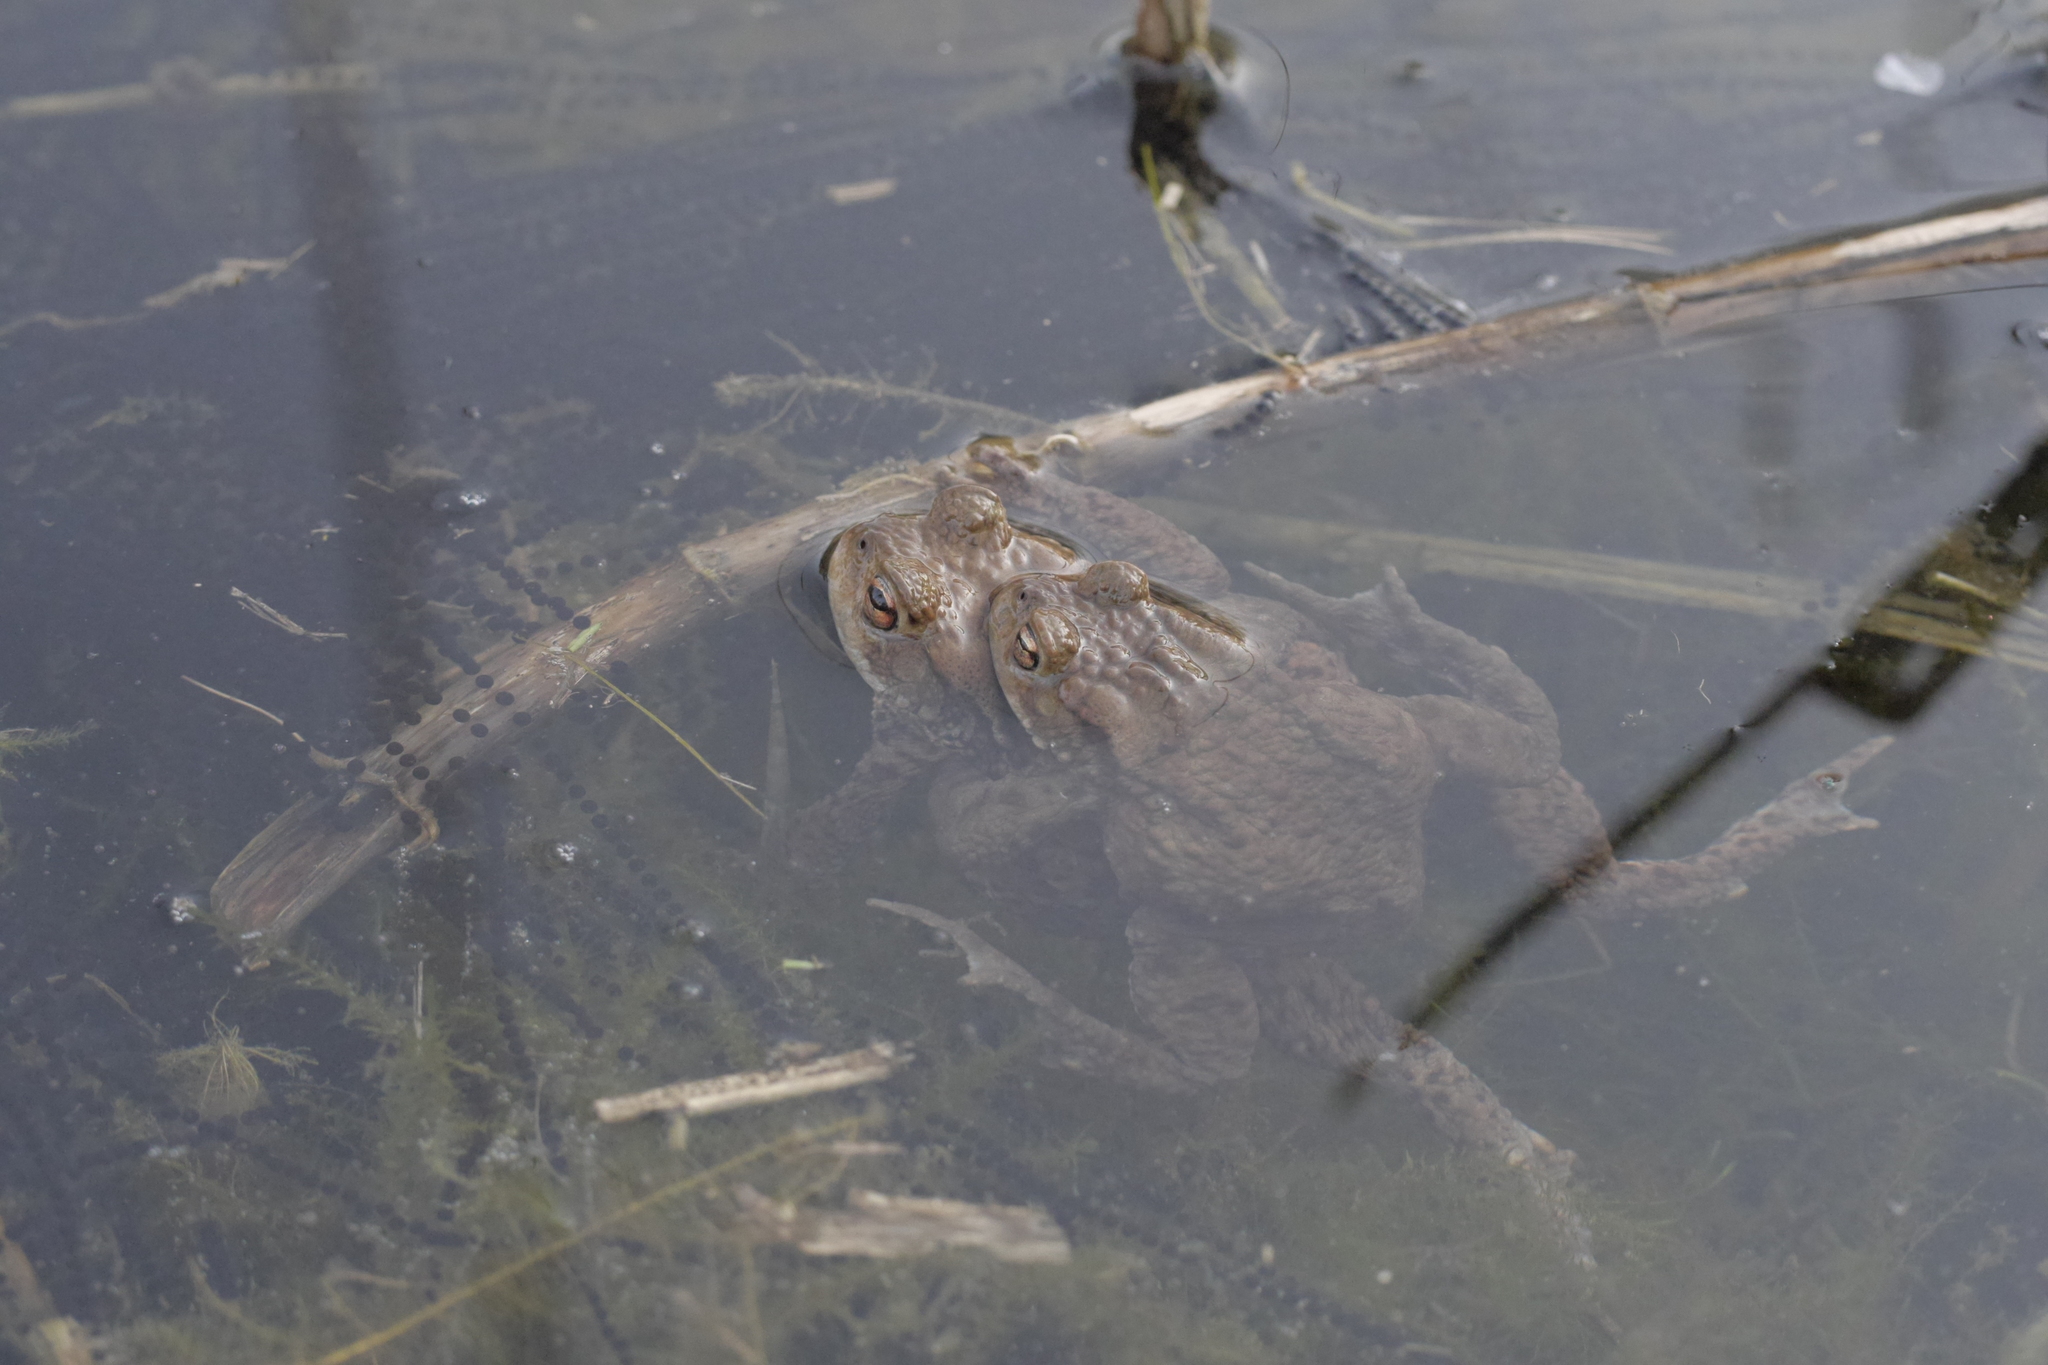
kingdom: Animalia
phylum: Chordata
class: Amphibia
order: Anura
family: Bufonidae
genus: Bufo
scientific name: Bufo bufo
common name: Common toad
